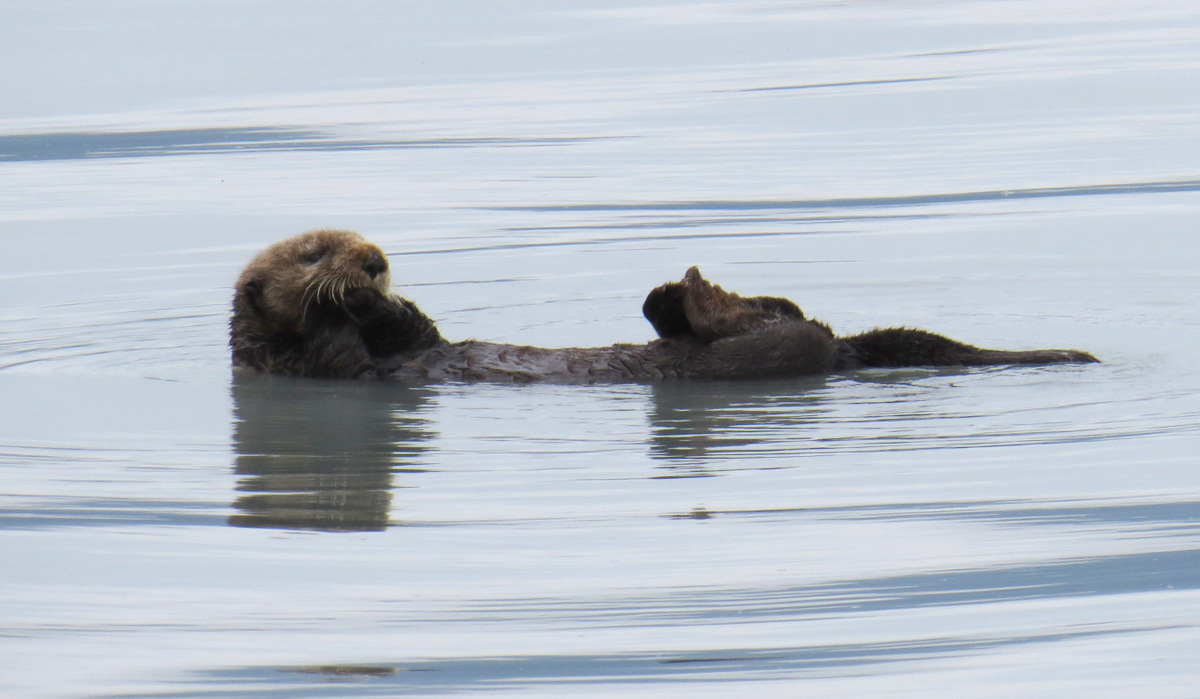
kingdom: Animalia
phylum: Chordata
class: Mammalia
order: Carnivora
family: Mustelidae
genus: Enhydra
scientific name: Enhydra lutris
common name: Sea otter
